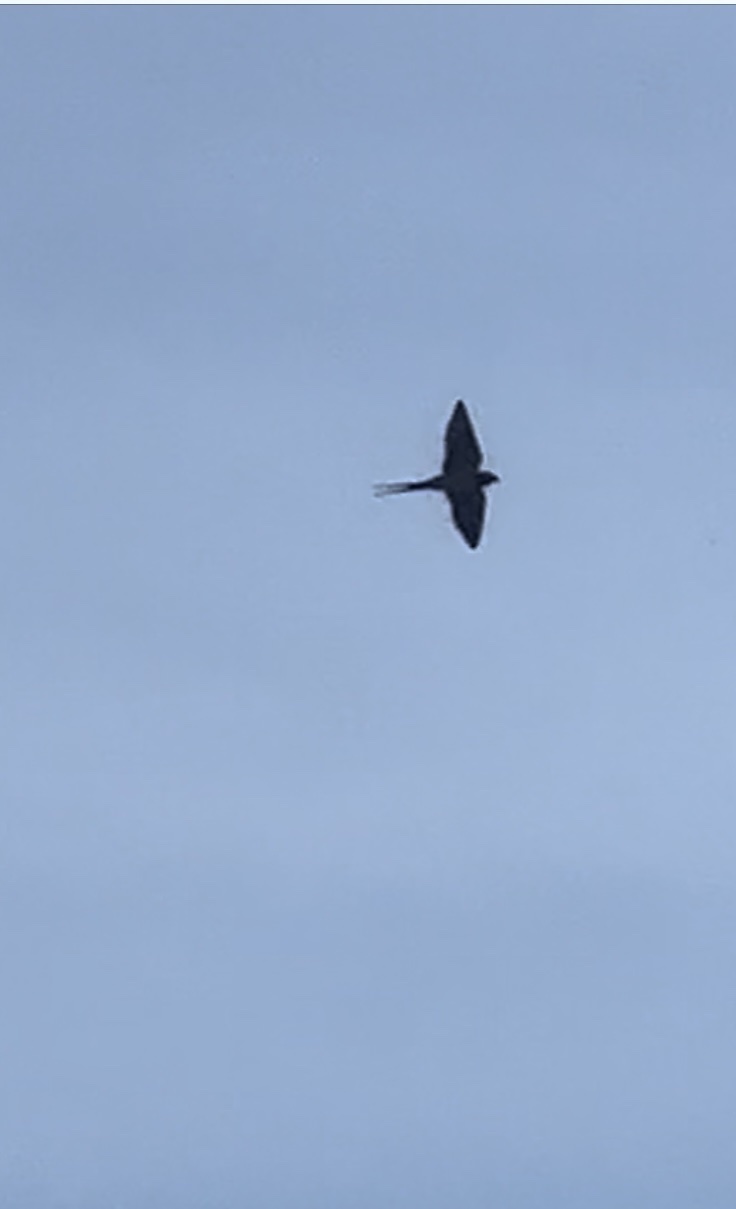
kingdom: Animalia
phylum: Chordata
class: Aves
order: Passeriformes
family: Hirundinidae
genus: Hirundo
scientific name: Hirundo rustica
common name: Barn swallow
